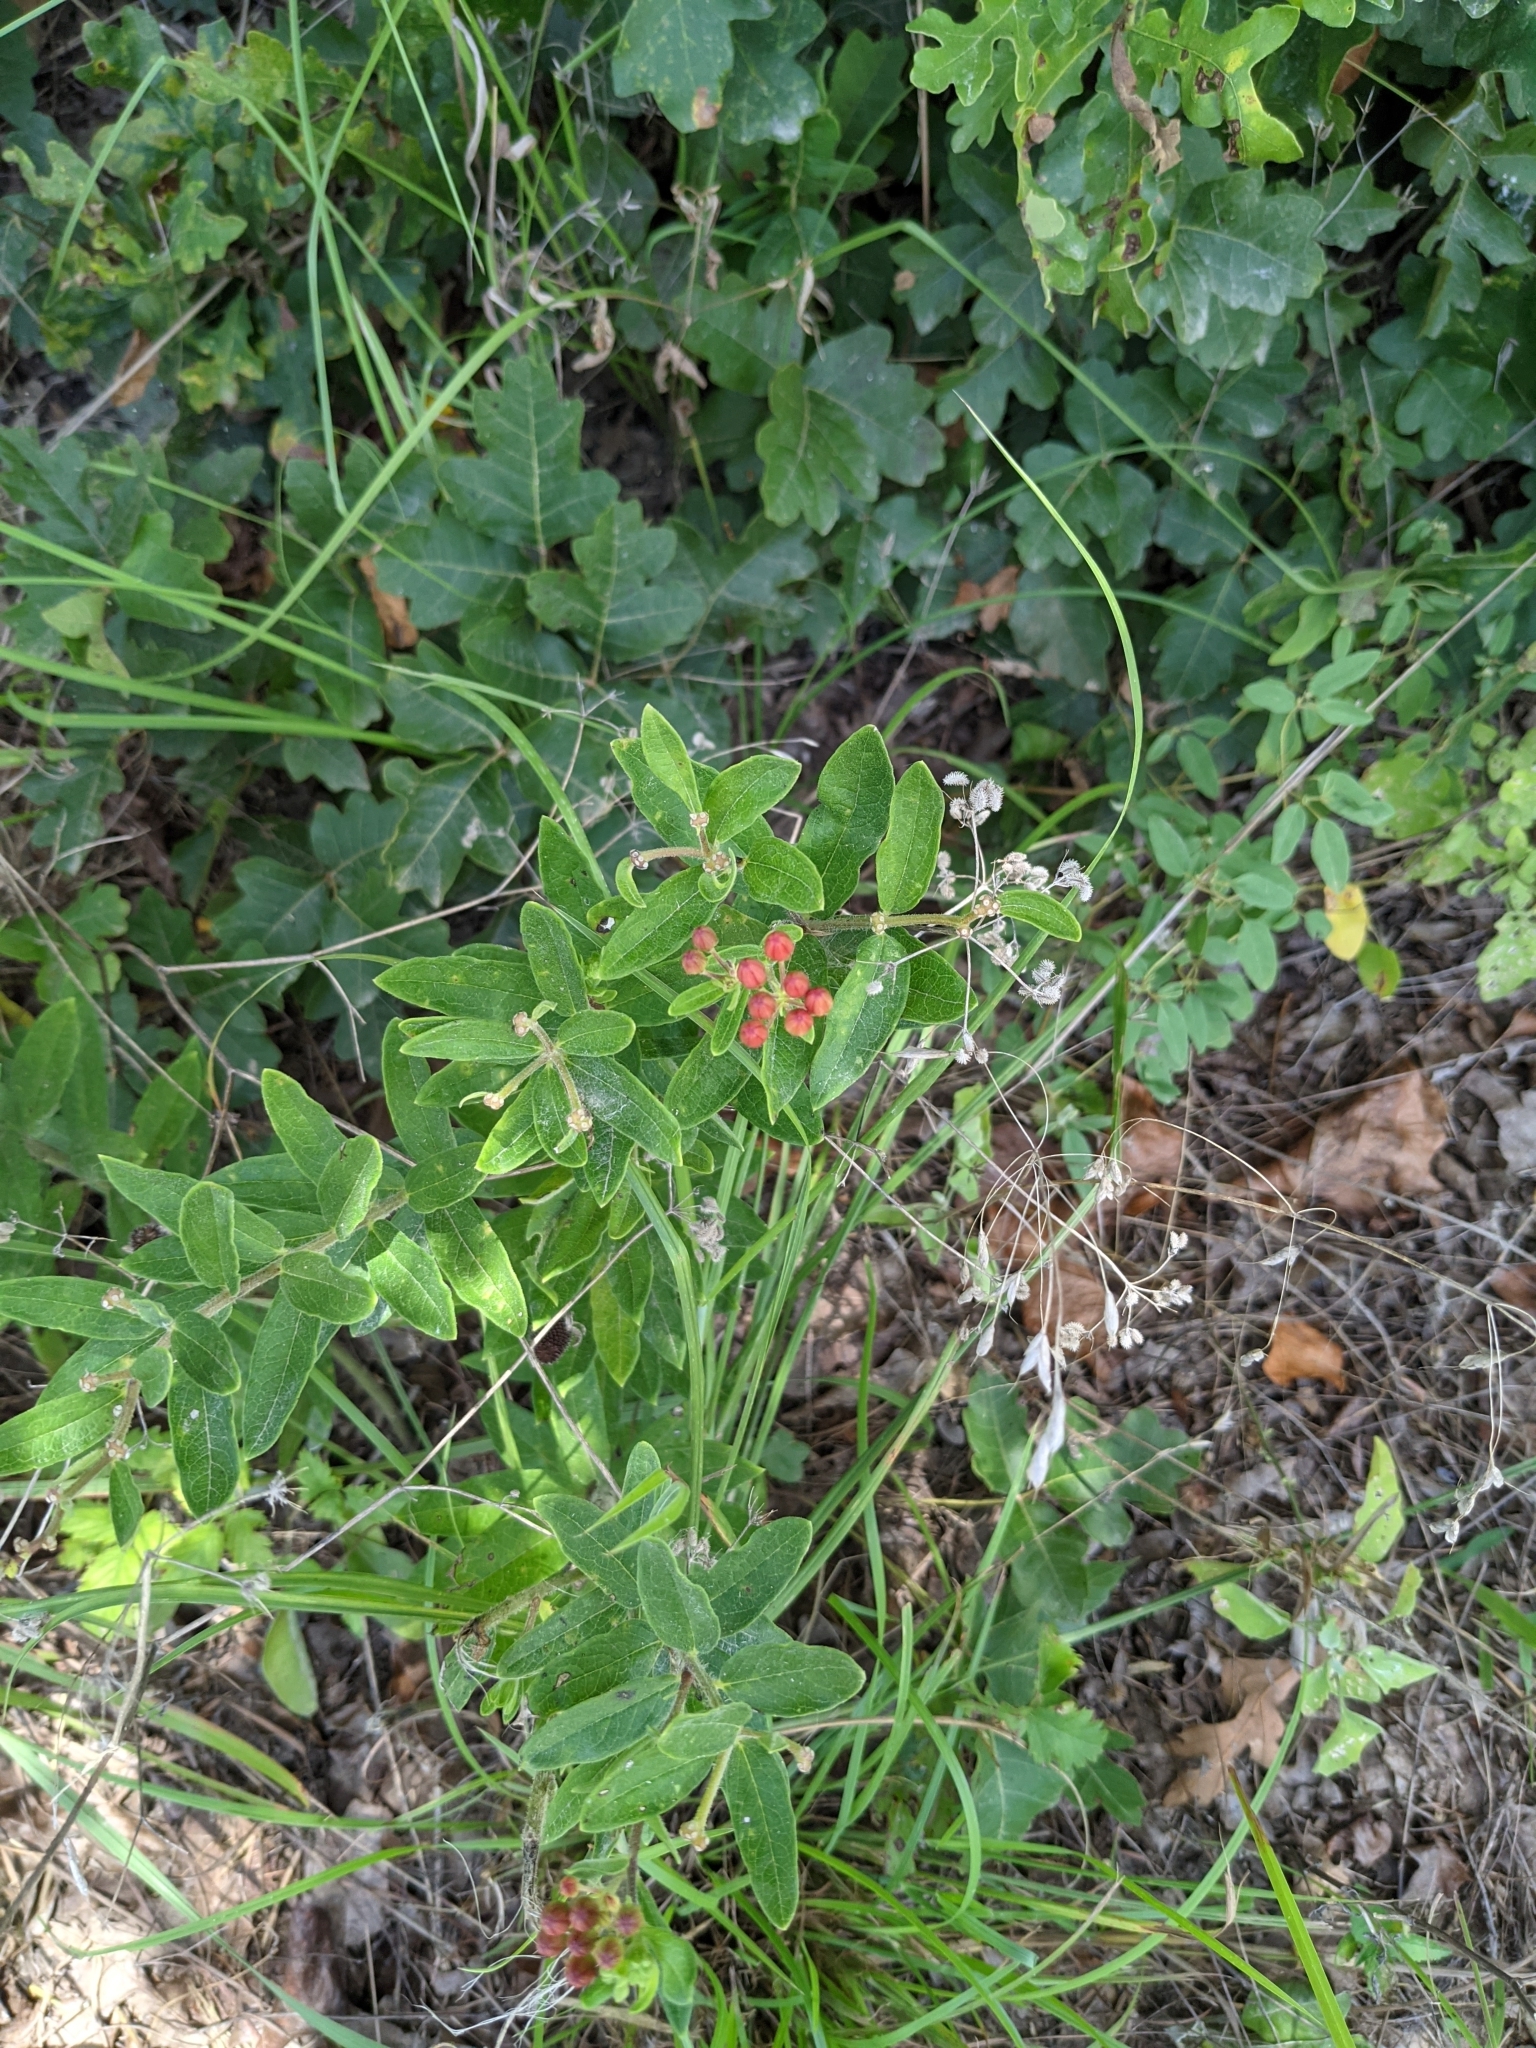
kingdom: Plantae
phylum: Tracheophyta
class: Magnoliopsida
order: Gentianales
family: Apocynaceae
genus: Asclepias
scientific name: Asclepias tuberosa
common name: Butterfly milkweed
